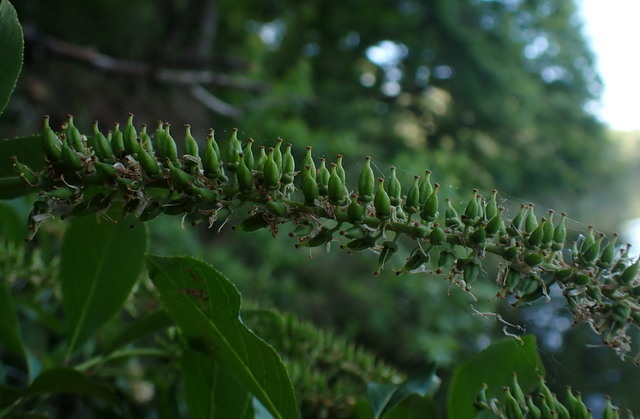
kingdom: Plantae
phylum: Tracheophyta
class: Magnoliopsida
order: Saxifragales
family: Iteaceae
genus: Itea
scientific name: Itea virginica
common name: Sweetspire
